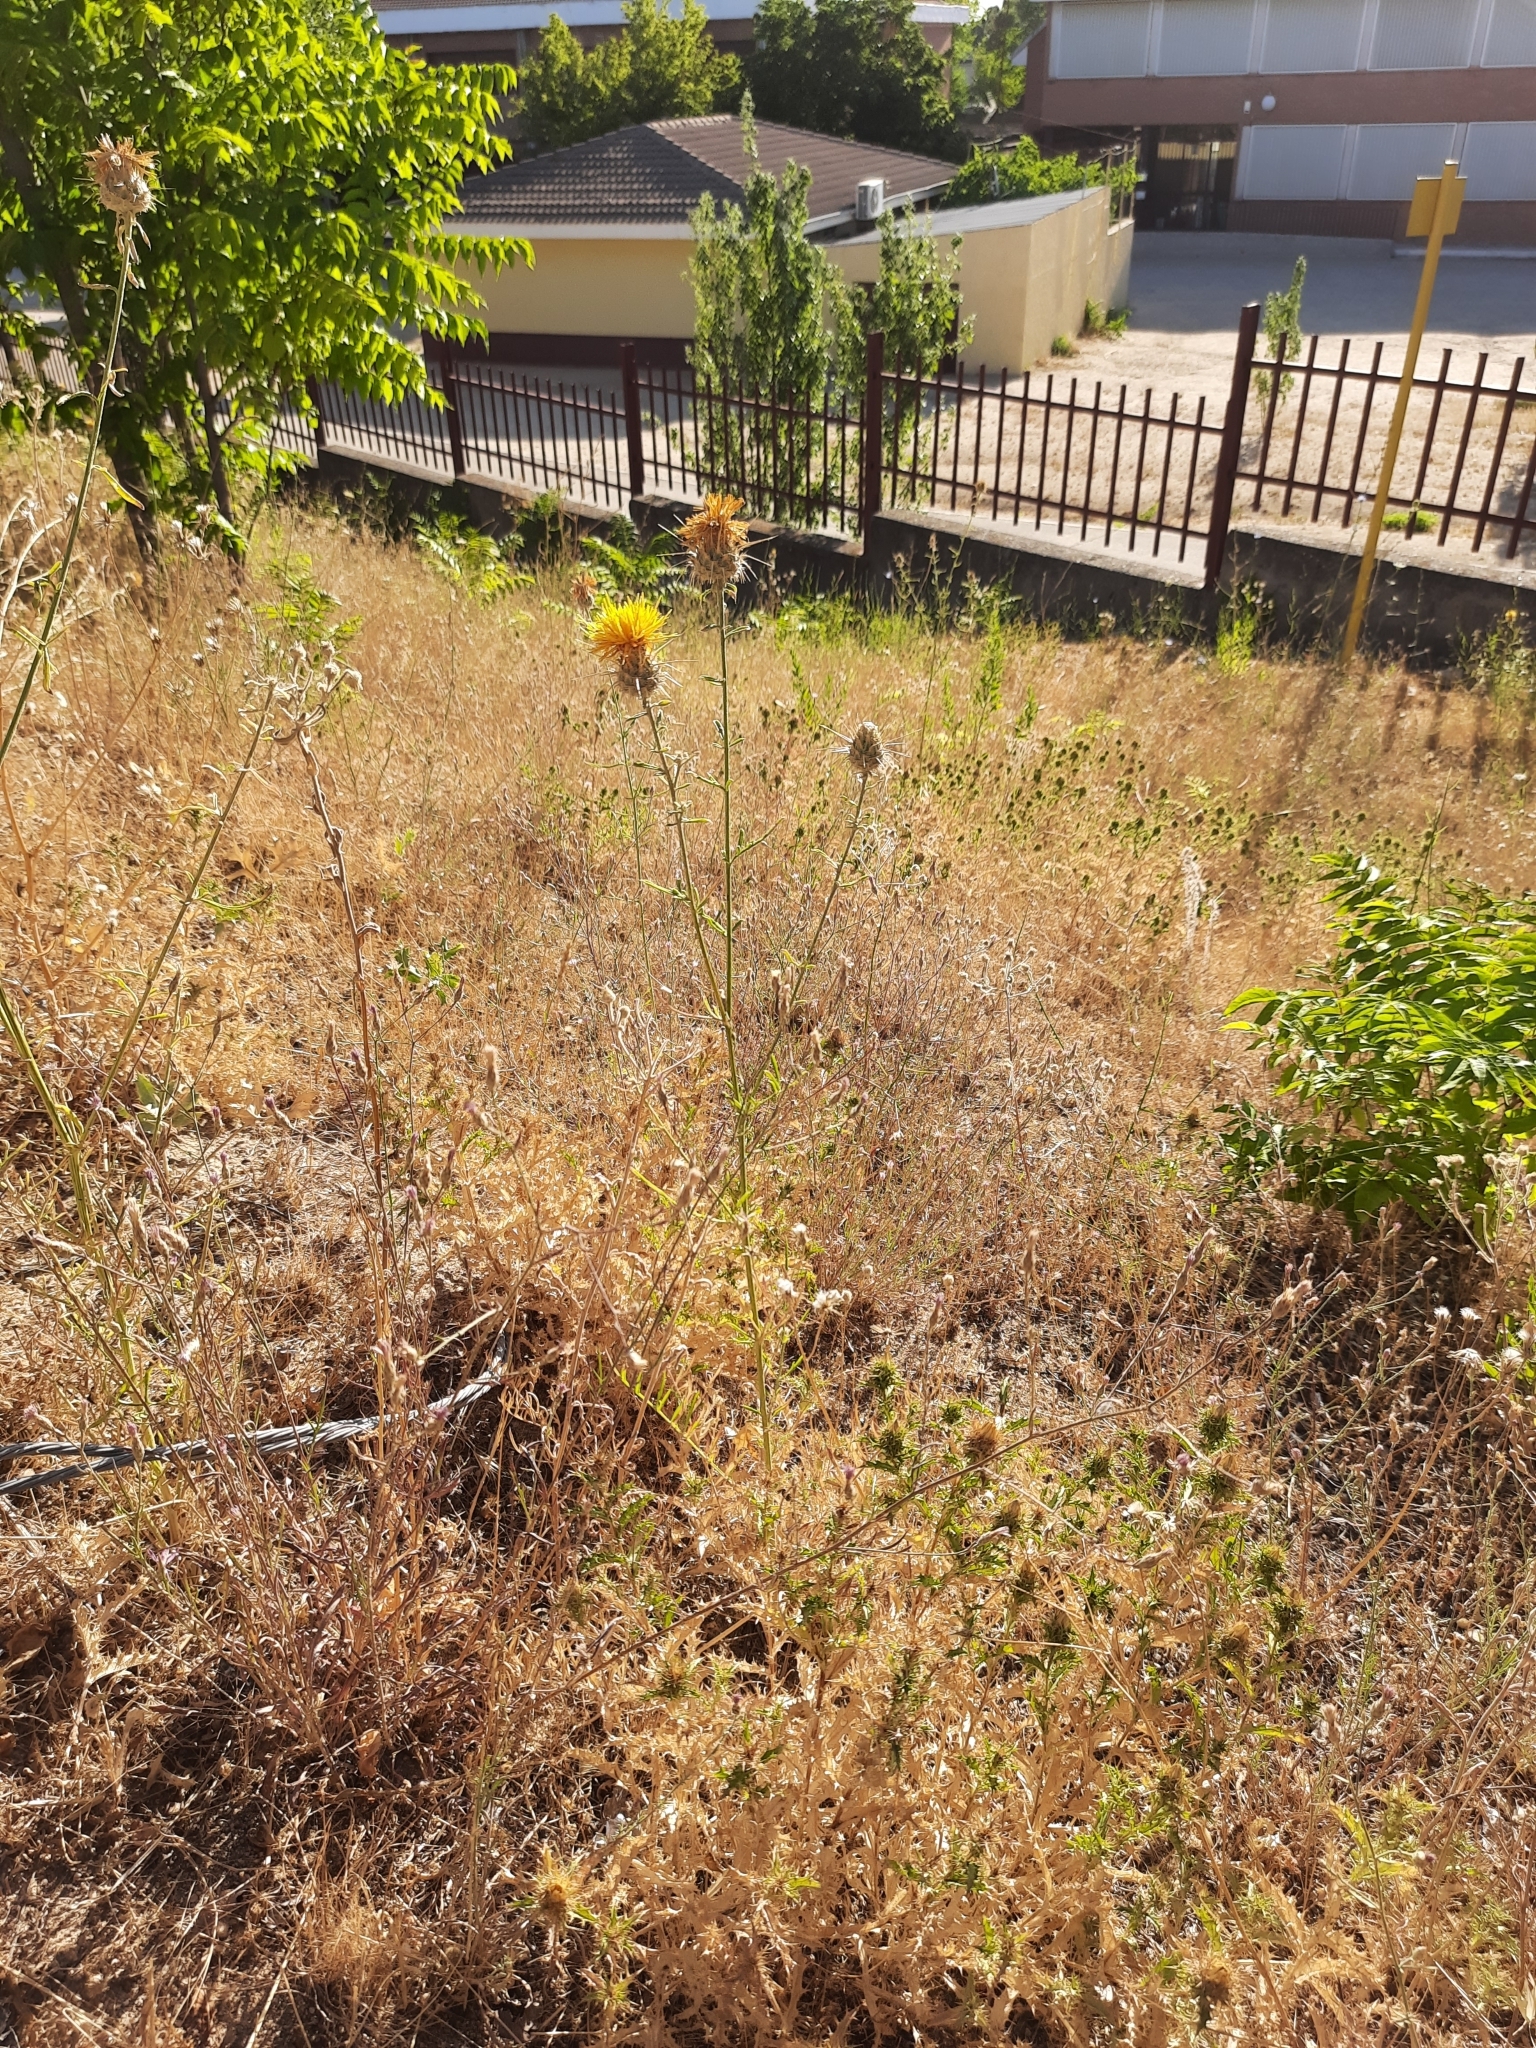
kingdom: Plantae
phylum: Tracheophyta
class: Magnoliopsida
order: Asterales
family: Asteraceae
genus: Centaurea
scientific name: Centaurea ornata
